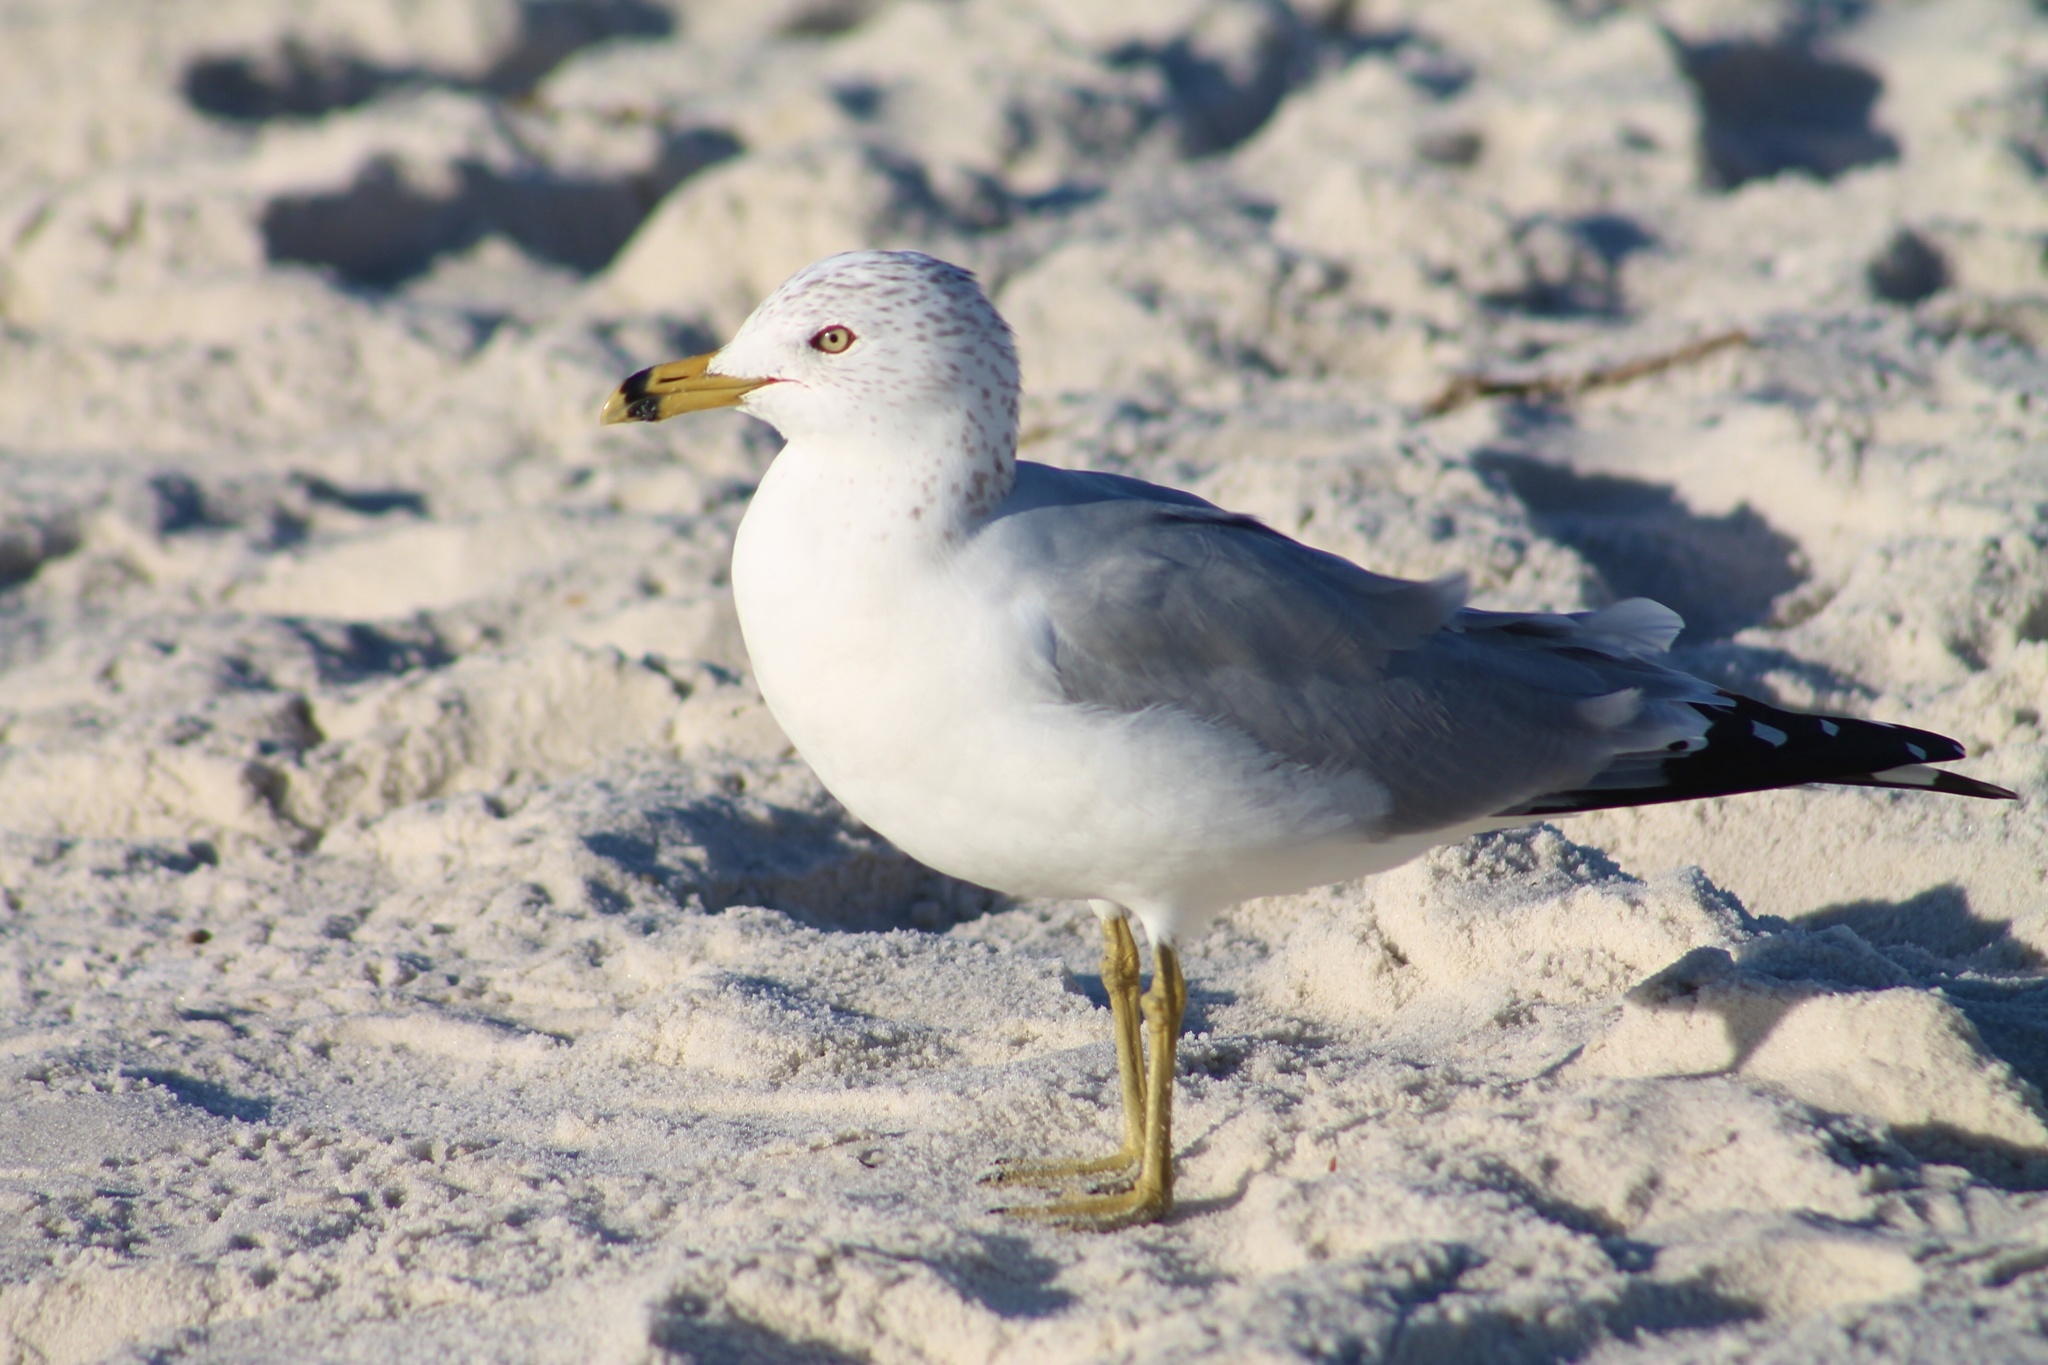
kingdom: Animalia
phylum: Chordata
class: Aves
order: Charadriiformes
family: Laridae
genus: Larus
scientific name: Larus delawarensis
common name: Ring-billed gull
